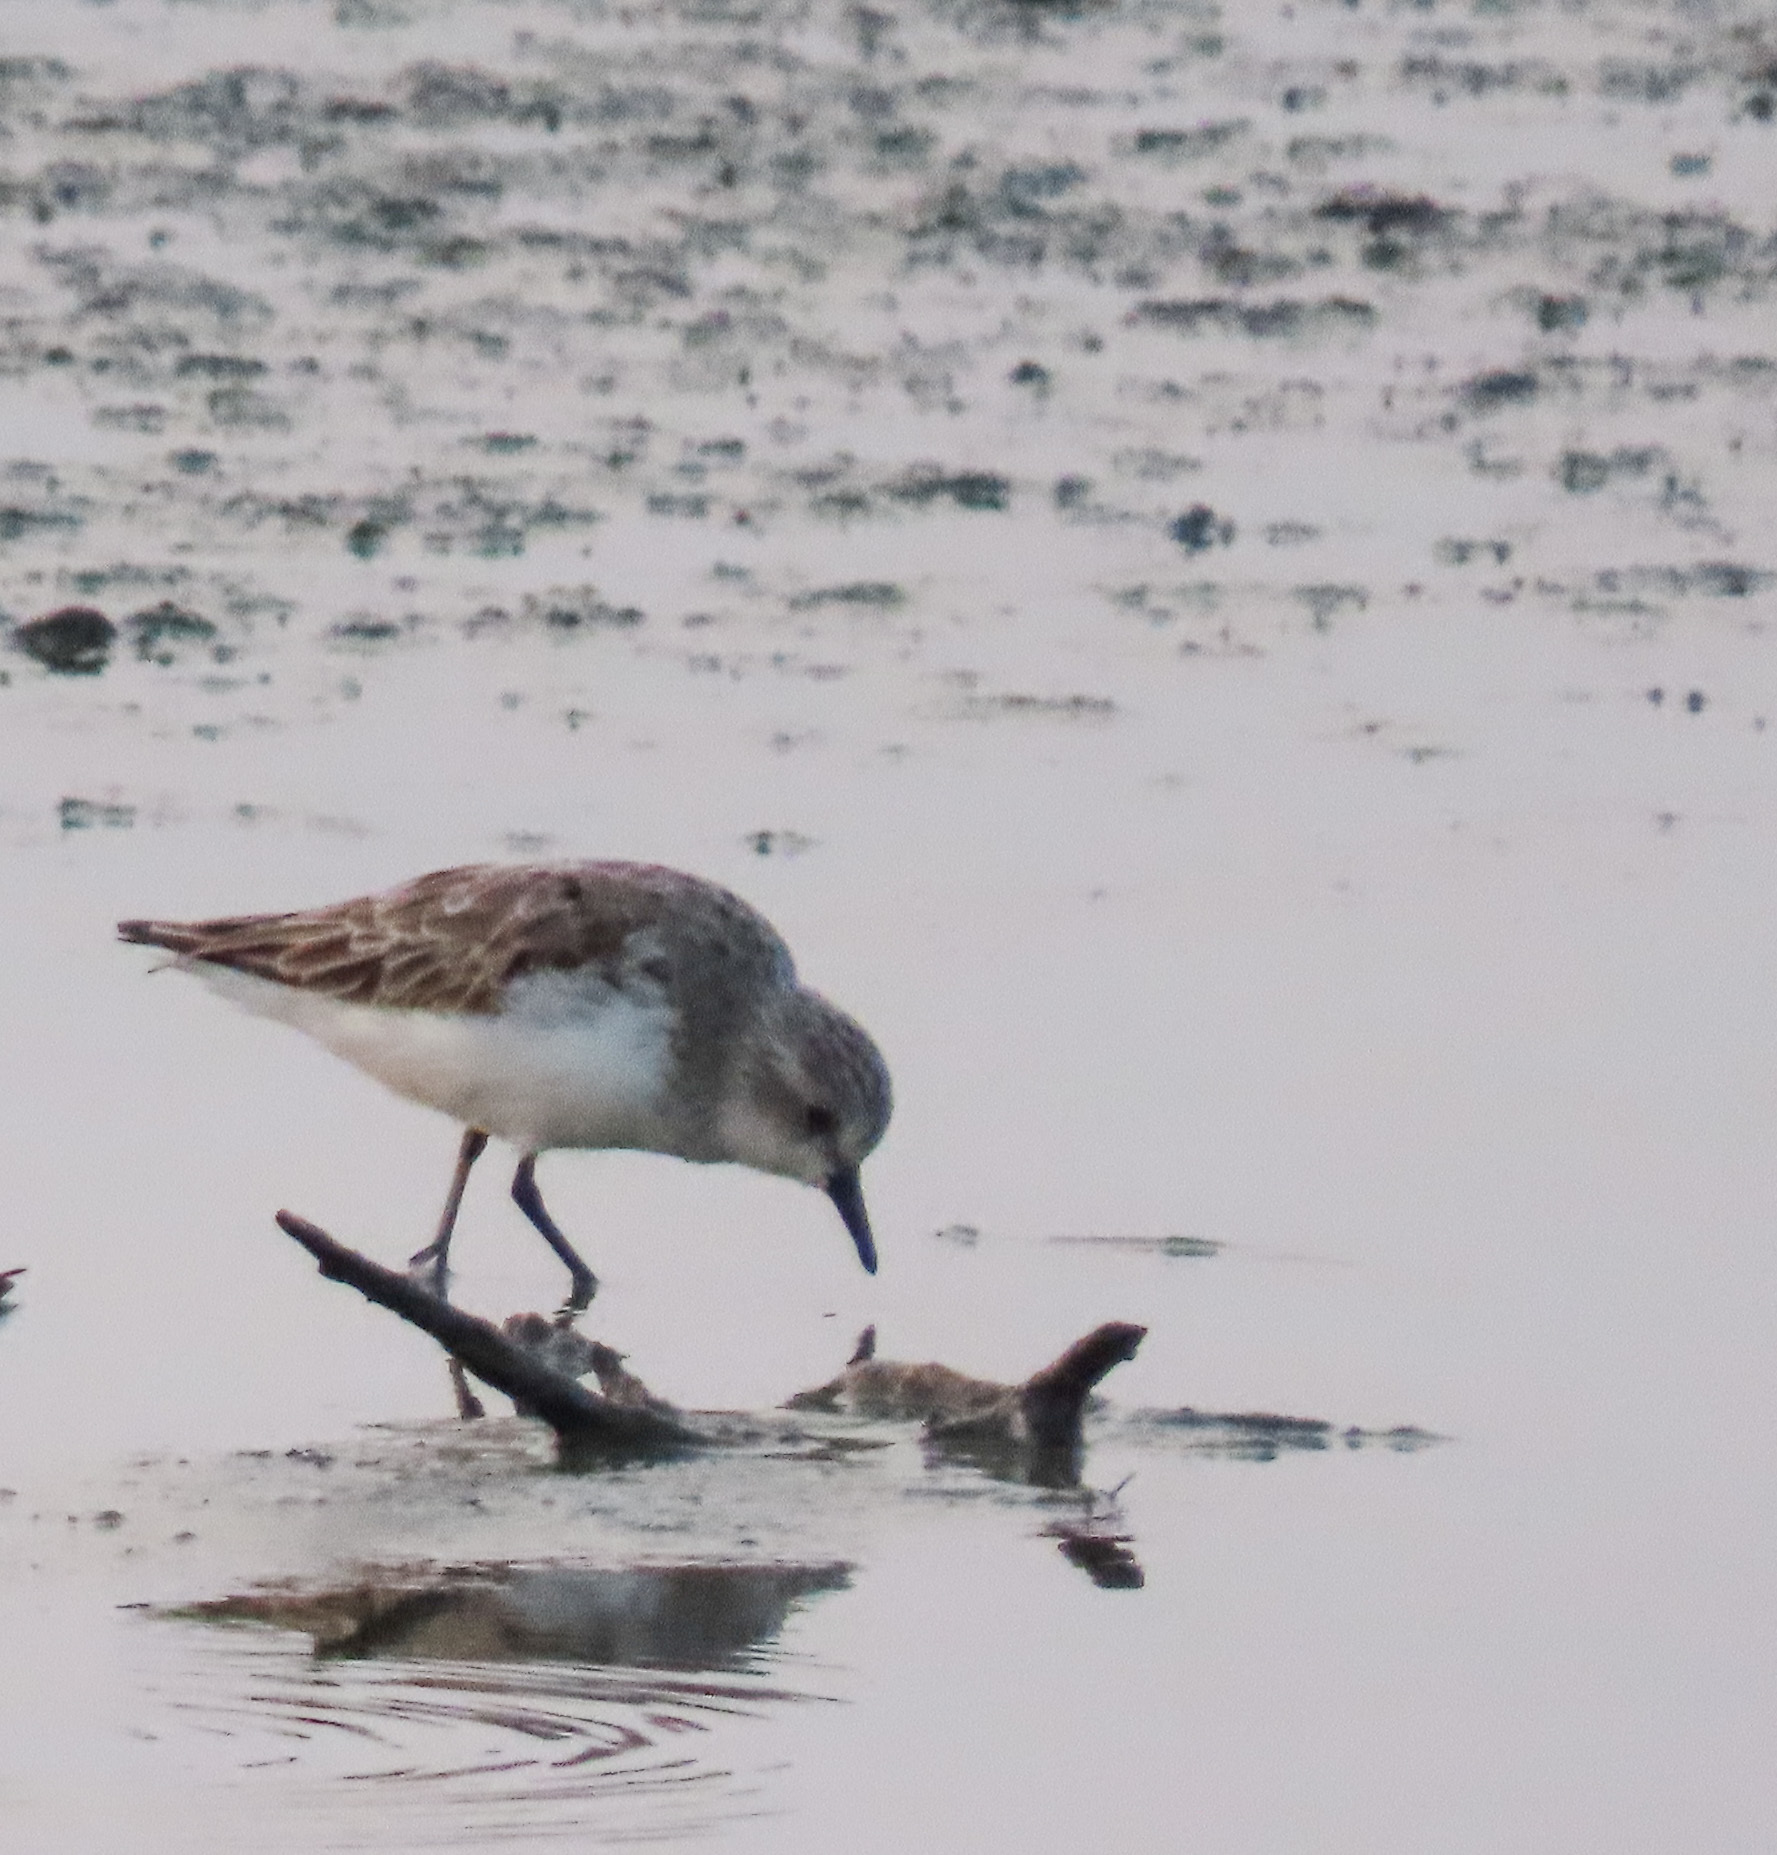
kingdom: Animalia
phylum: Chordata
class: Aves
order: Charadriiformes
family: Scolopacidae
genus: Calidris
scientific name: Calidris ruficollis
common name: Red-necked stint
